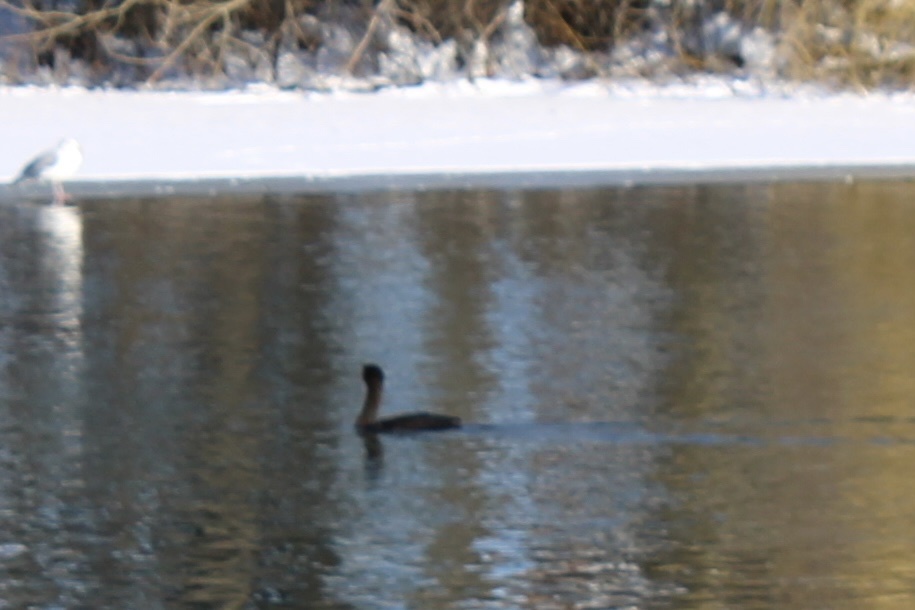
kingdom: Animalia
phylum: Chordata
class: Aves
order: Suliformes
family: Phalacrocoracidae
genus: Phalacrocorax
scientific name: Phalacrocorax auritus
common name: Double-crested cormorant
